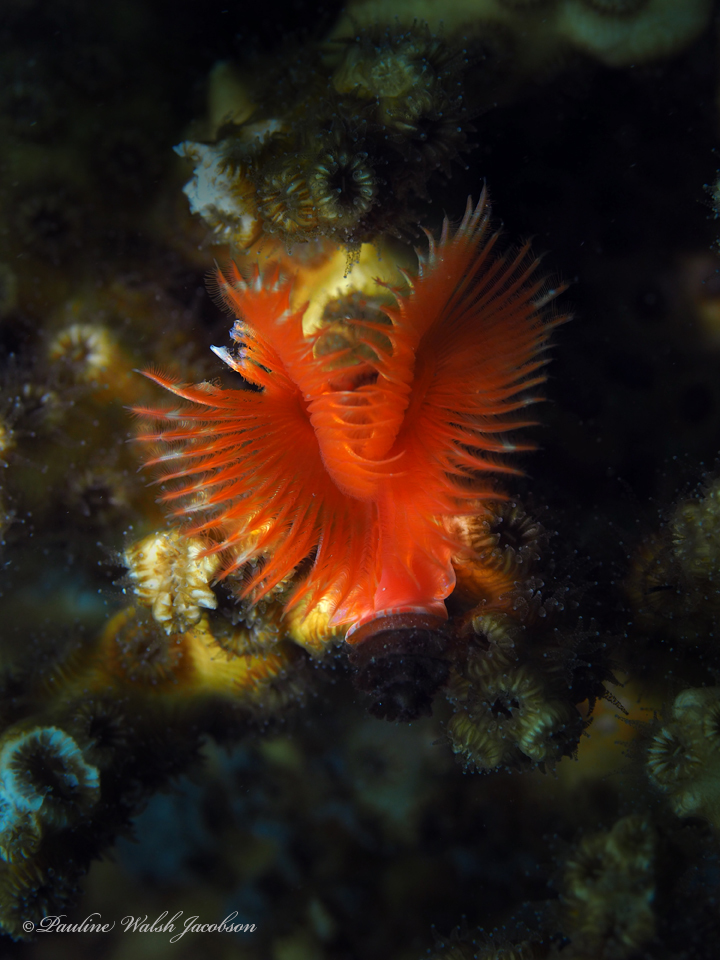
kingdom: Animalia
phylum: Annelida
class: Polychaeta
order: Sabellida
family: Serpulidae
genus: Pomatostegus
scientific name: Pomatostegus stellatus
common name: Star tubeworm
